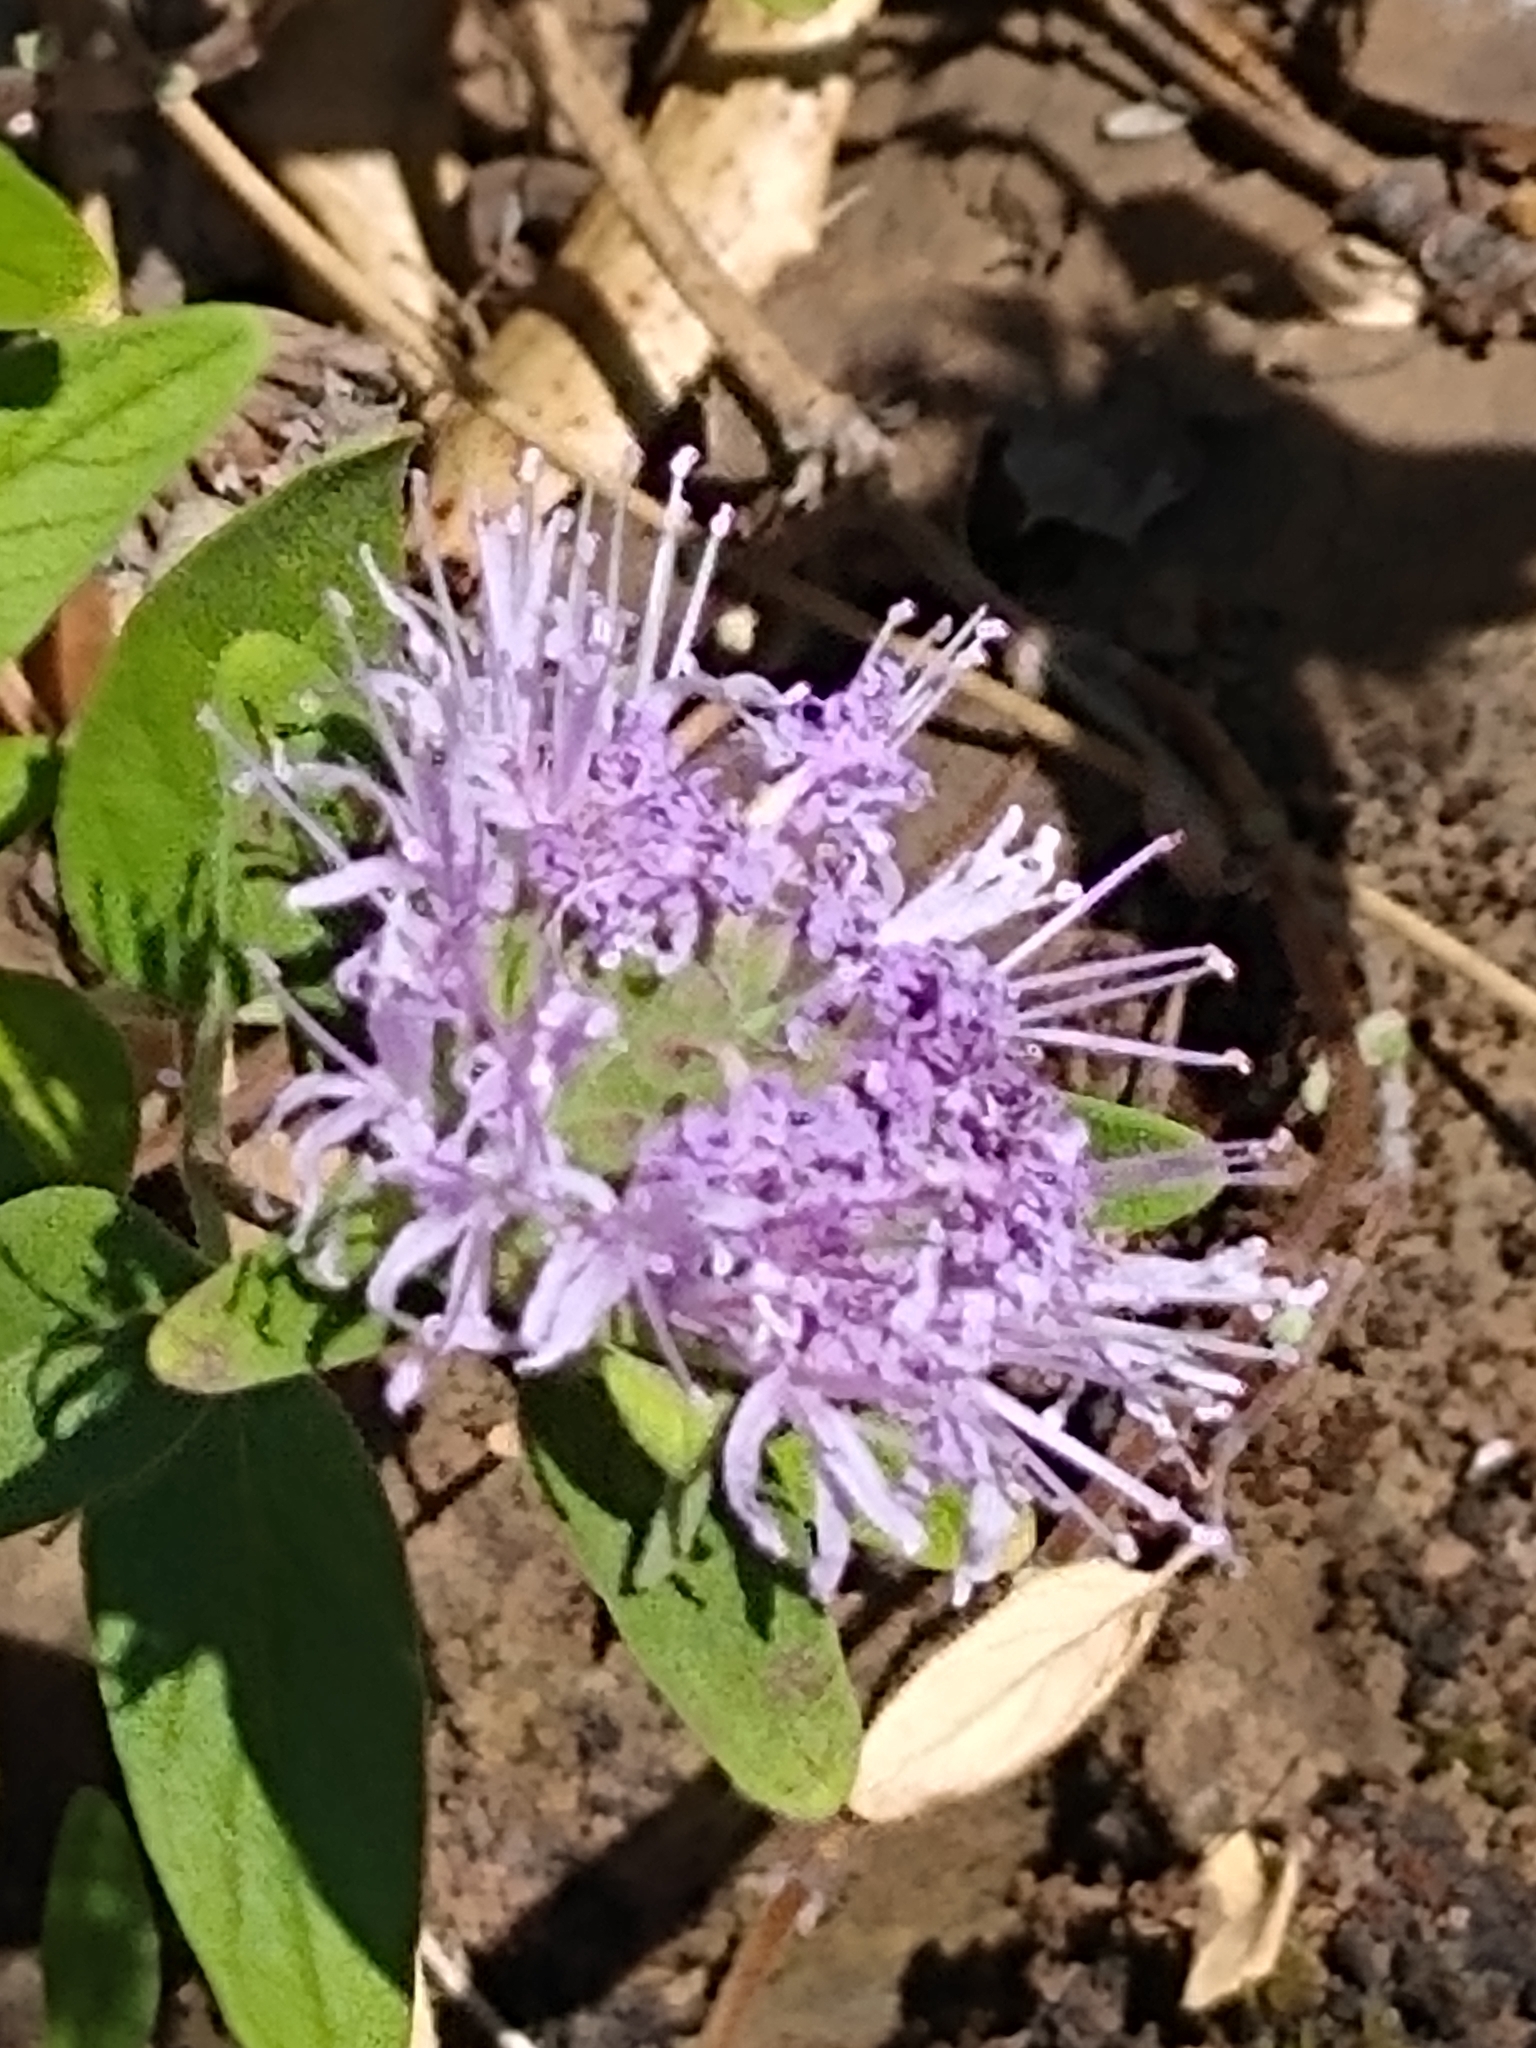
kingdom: Plantae
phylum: Tracheophyta
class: Magnoliopsida
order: Lamiales
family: Lamiaceae
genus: Monardella
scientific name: Monardella odoratissima
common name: Pacific monardella
